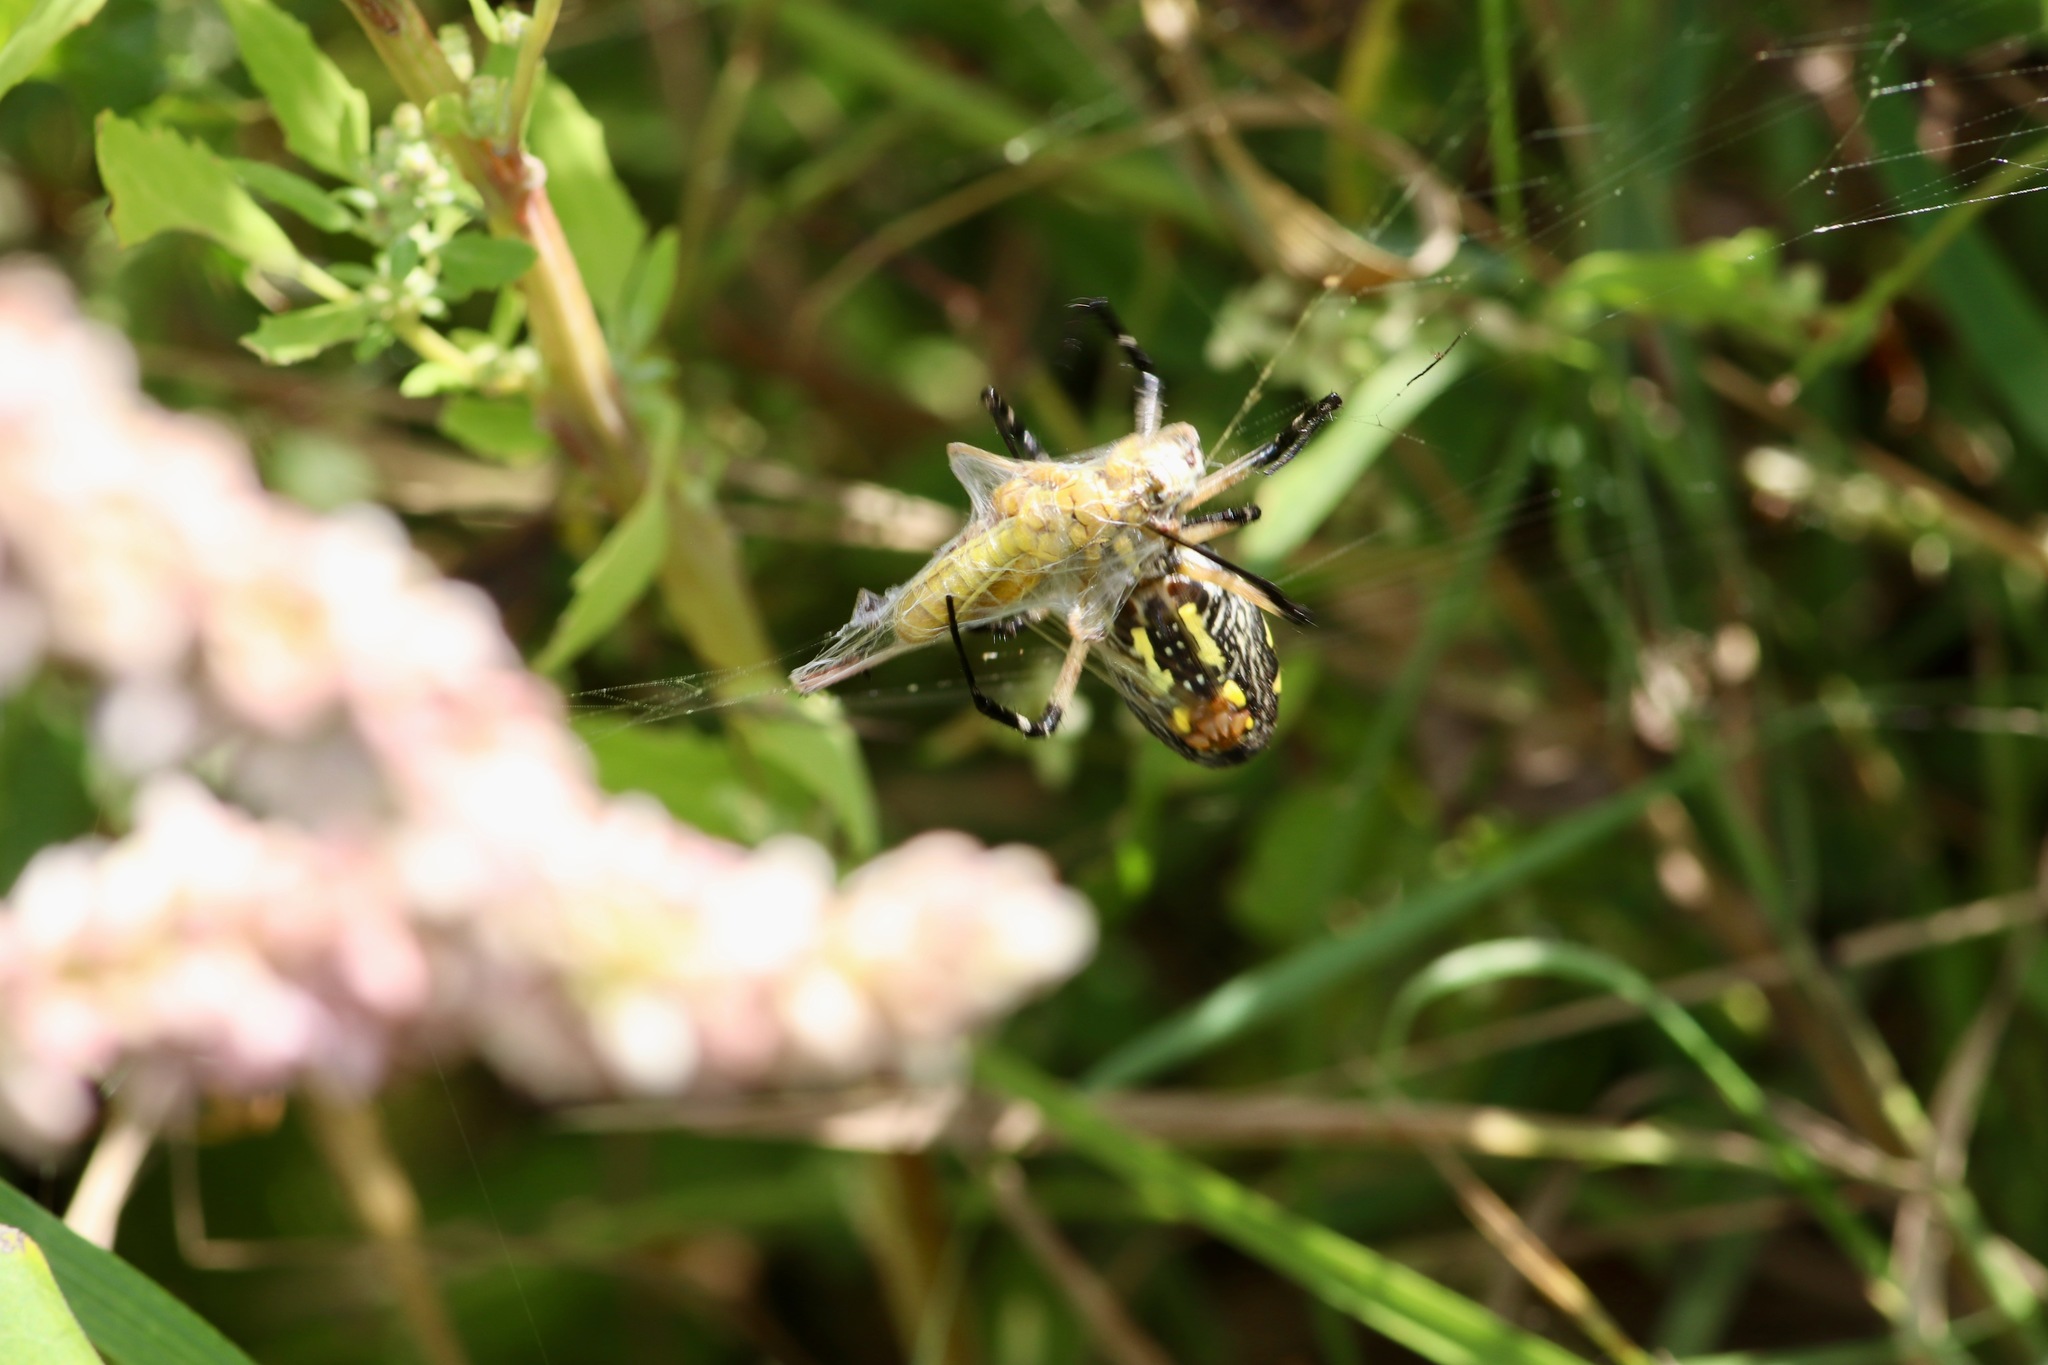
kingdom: Animalia
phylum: Arthropoda
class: Arachnida
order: Araneae
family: Araneidae
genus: Argiope
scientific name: Argiope aurantia
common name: Orb weavers
